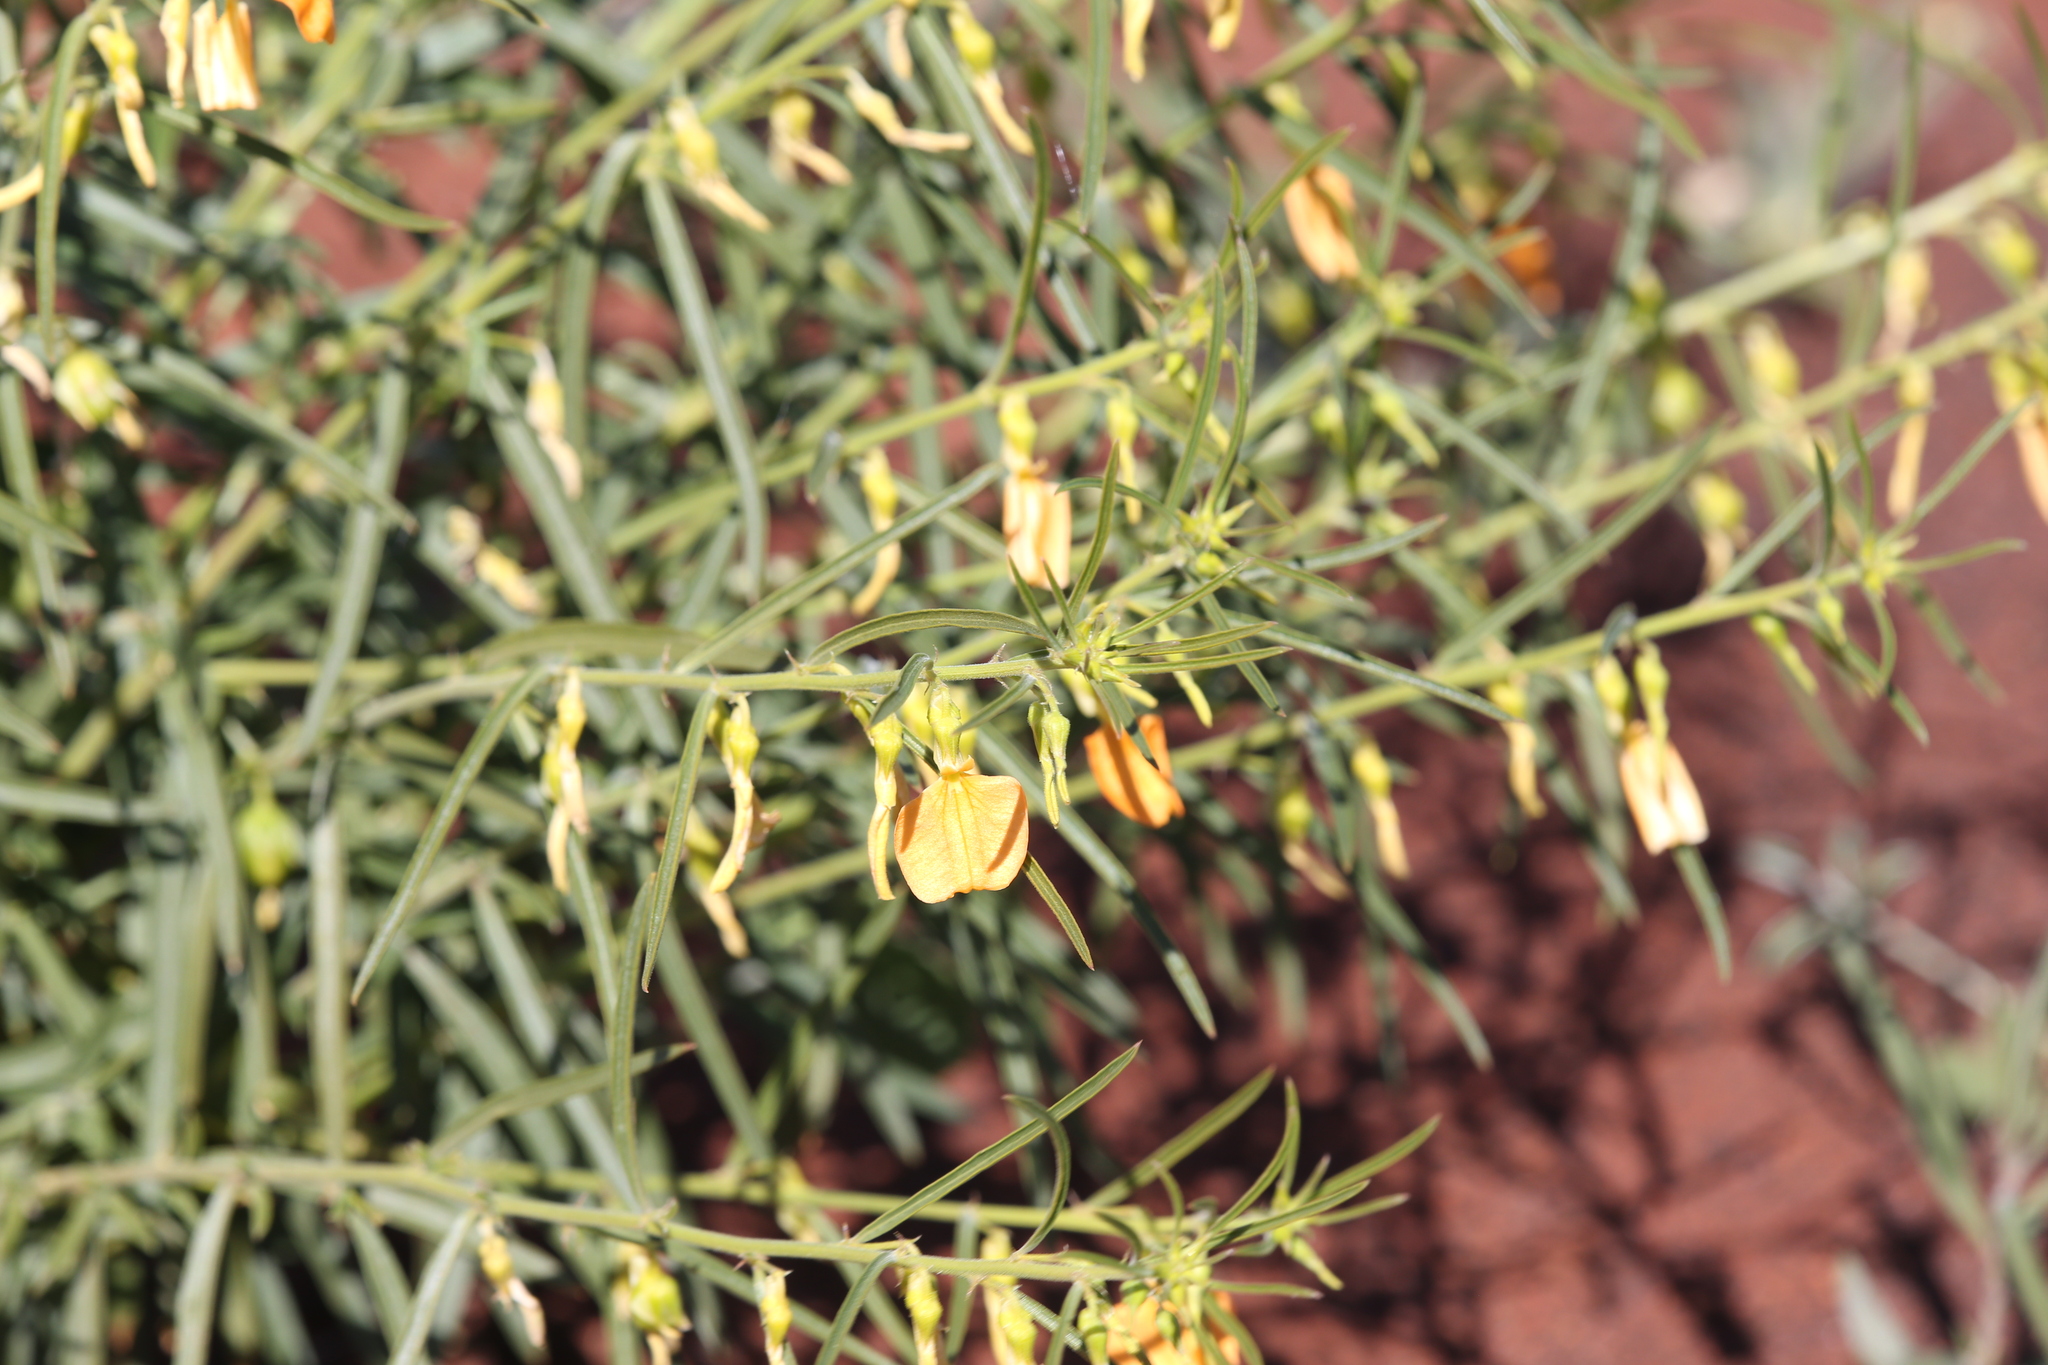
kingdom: Plantae
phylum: Tracheophyta
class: Magnoliopsida
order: Malpighiales
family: Violaceae
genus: Pigea
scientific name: Pigea aurantiaca
